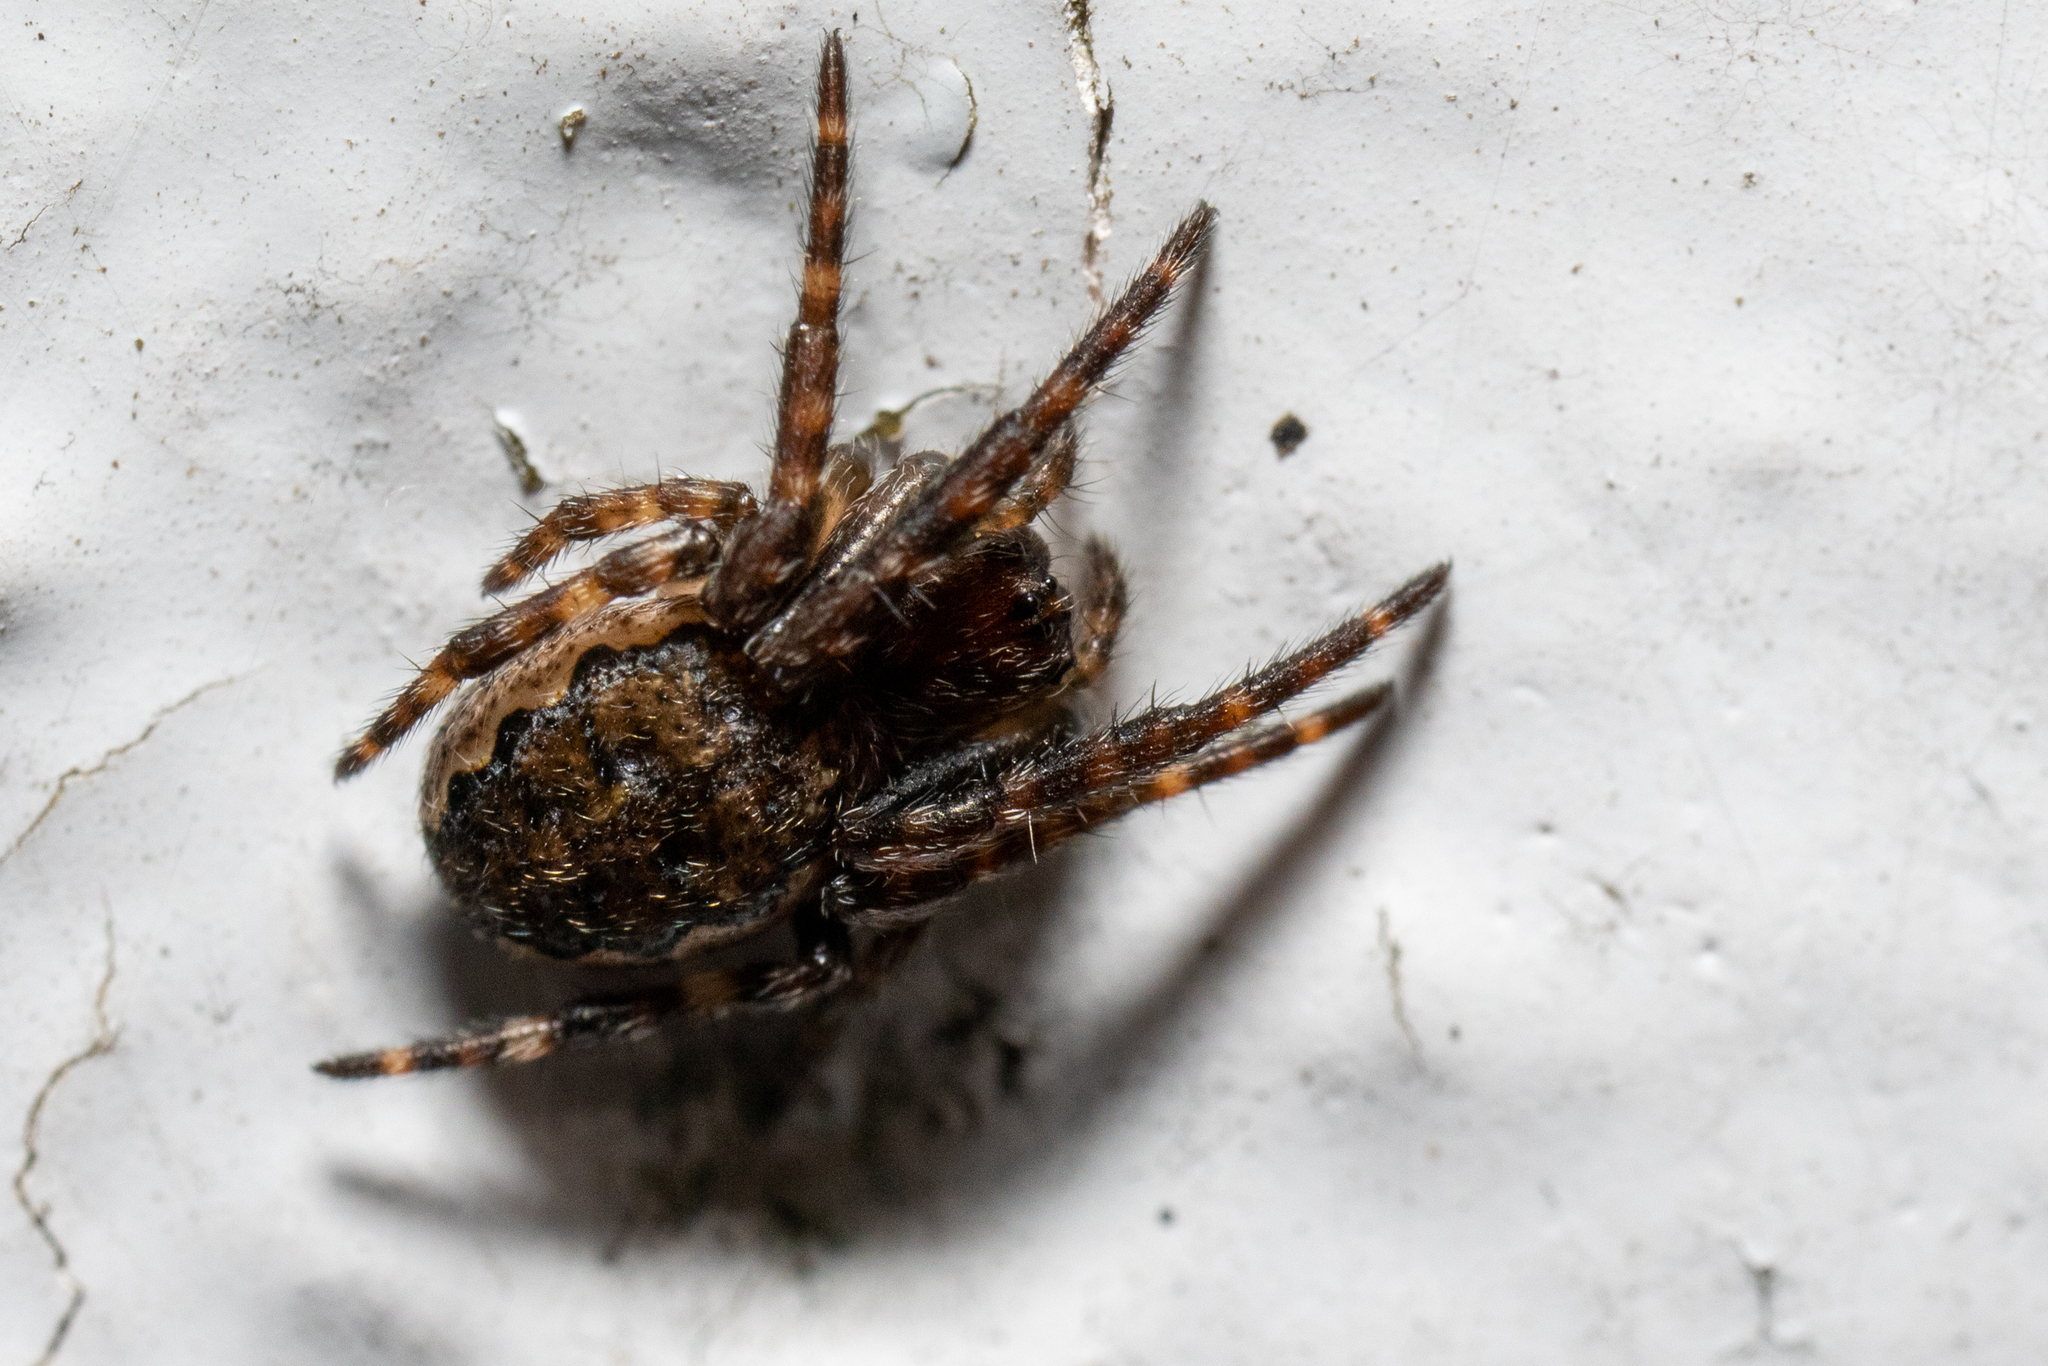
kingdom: Animalia
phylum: Arthropoda
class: Arachnida
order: Araneae
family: Araneidae
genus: Nuctenea
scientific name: Nuctenea umbratica
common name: Toad spider
